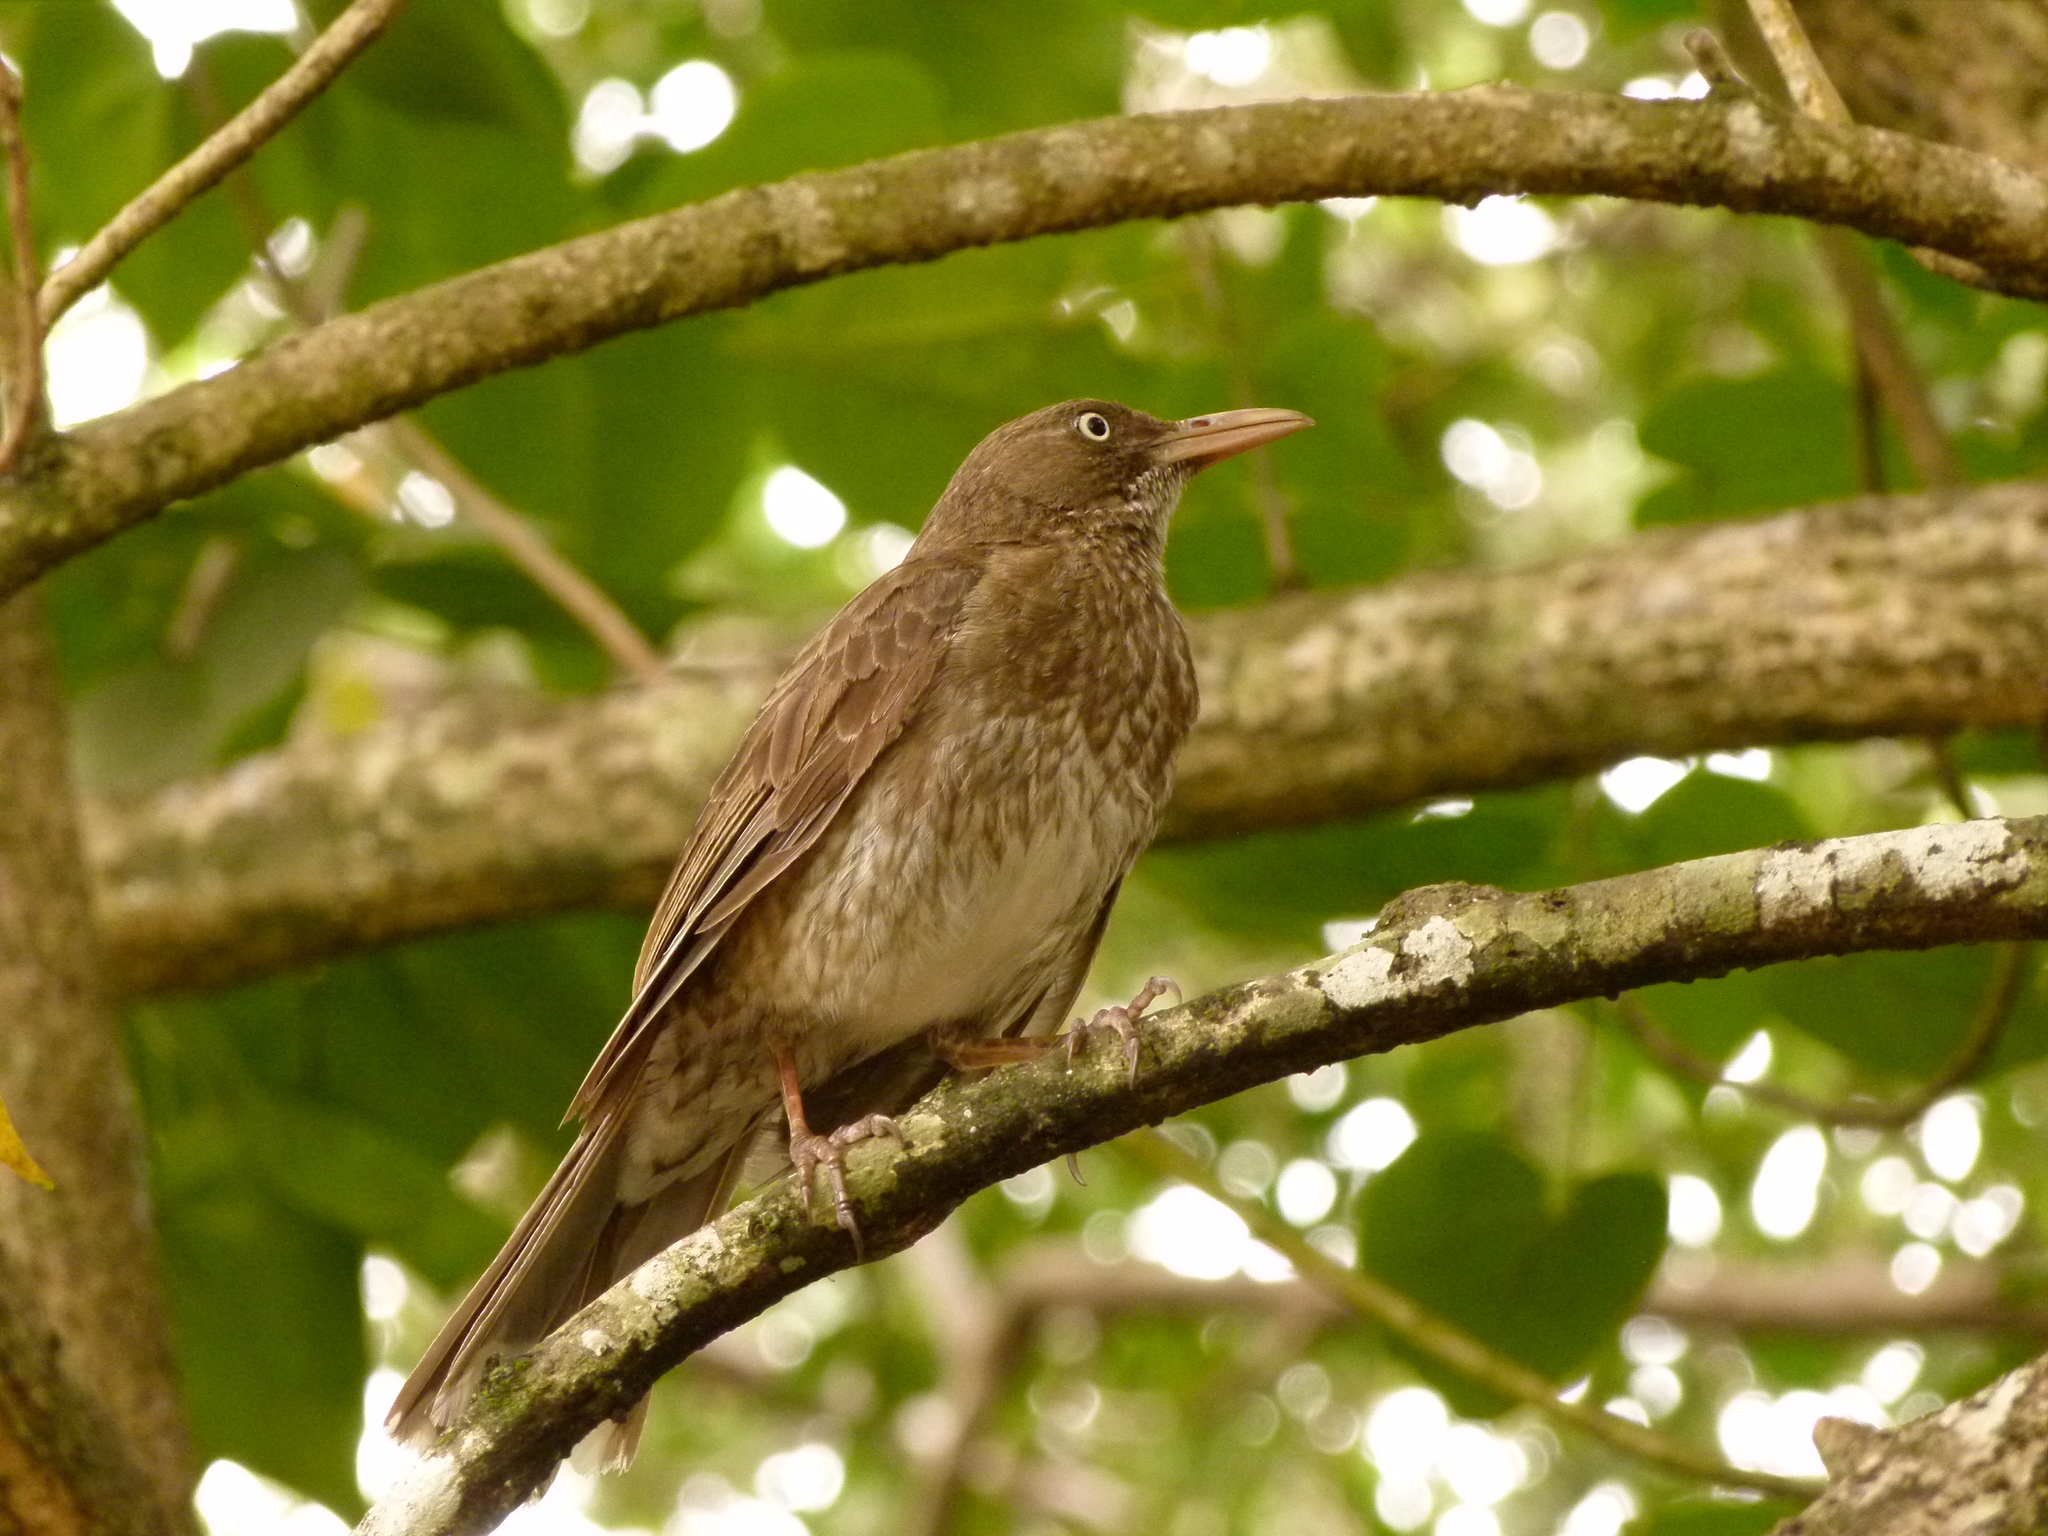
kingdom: Animalia
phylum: Chordata
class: Aves
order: Passeriformes
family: Mimidae
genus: Margarops
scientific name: Margarops fuscatus
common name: Pearly-eyed thrasher
